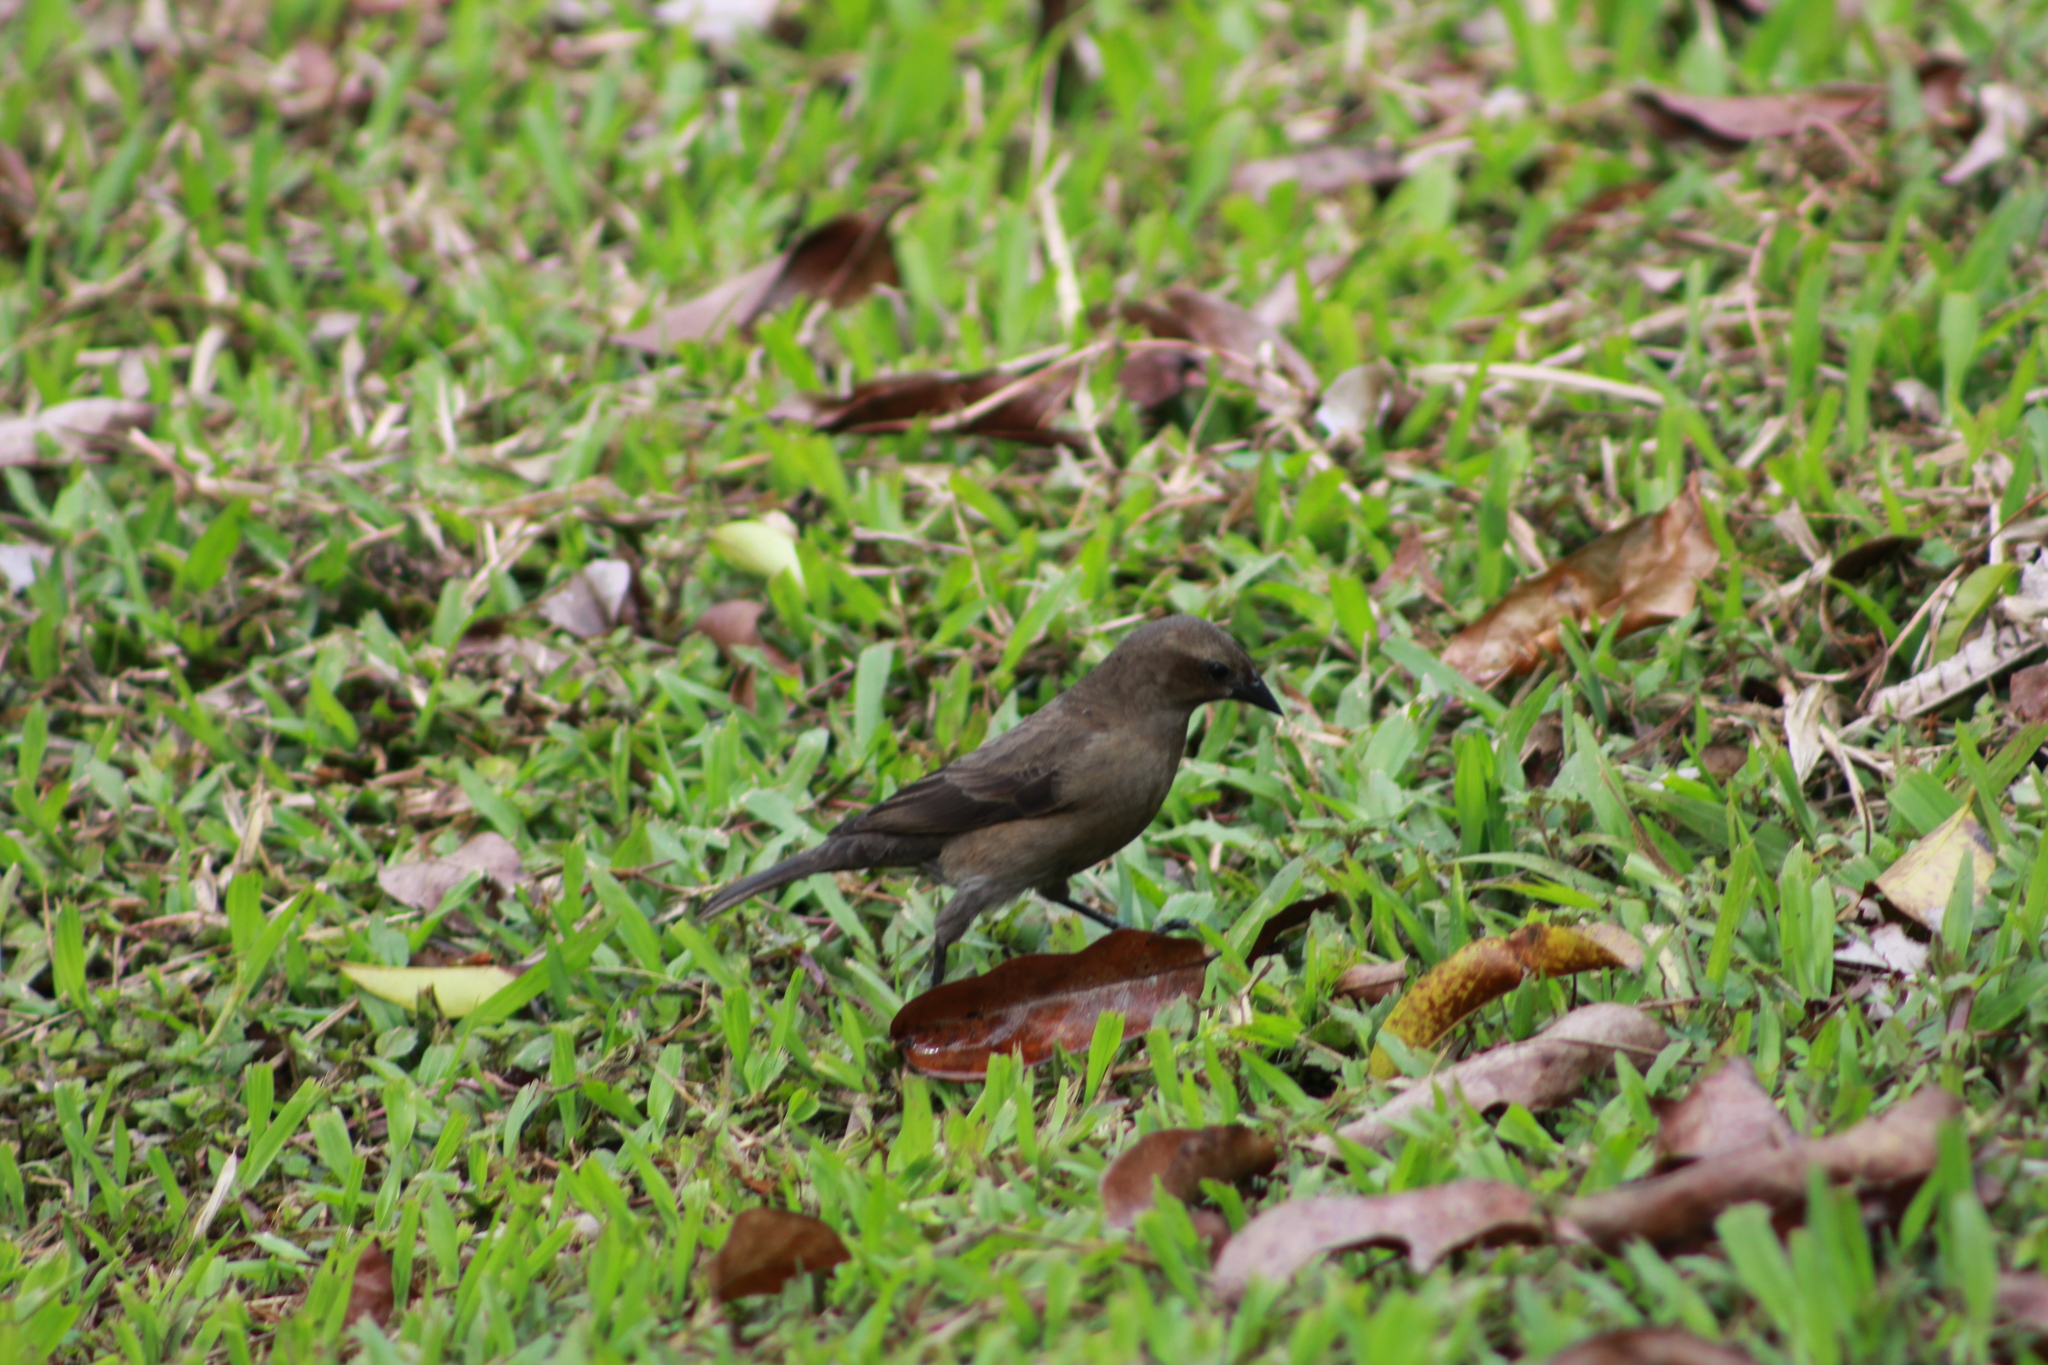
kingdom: Animalia
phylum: Chordata
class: Aves
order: Passeriformes
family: Icteridae
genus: Molothrus
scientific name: Molothrus bonariensis
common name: Shiny cowbird
